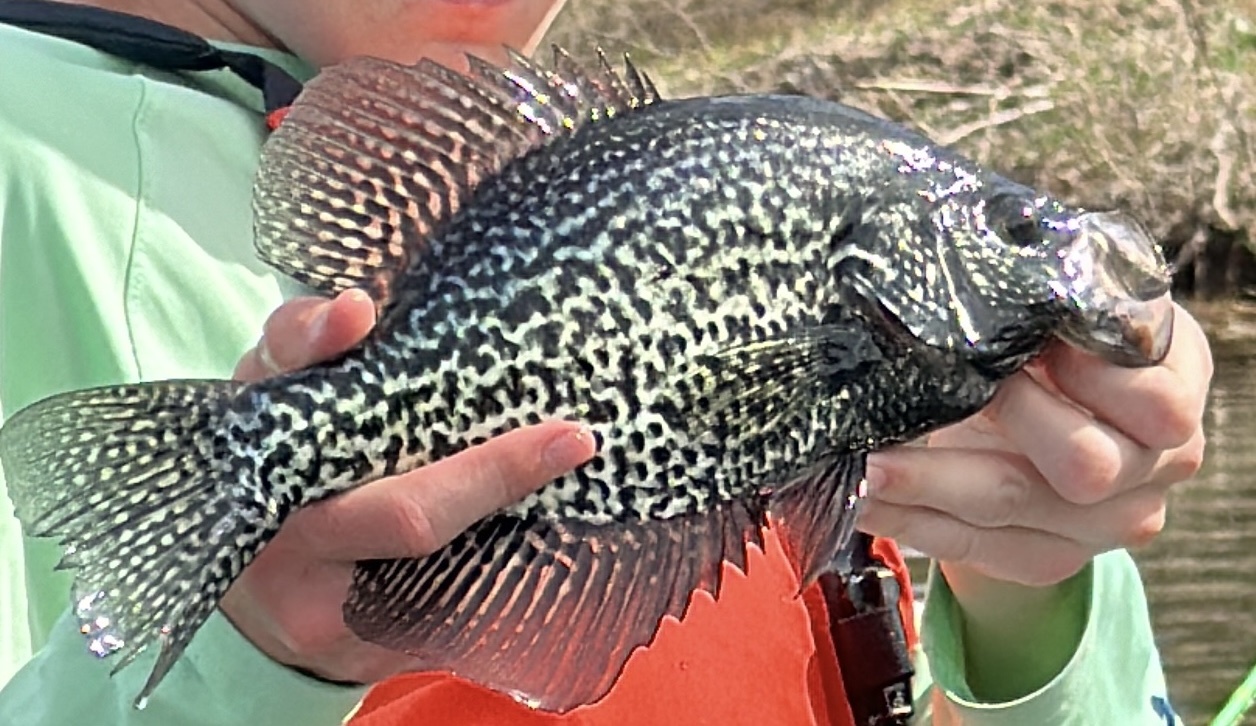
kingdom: Animalia
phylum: Chordata
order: Perciformes
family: Centrarchidae
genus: Pomoxis
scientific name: Pomoxis nigromaculatus
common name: Black crappie
